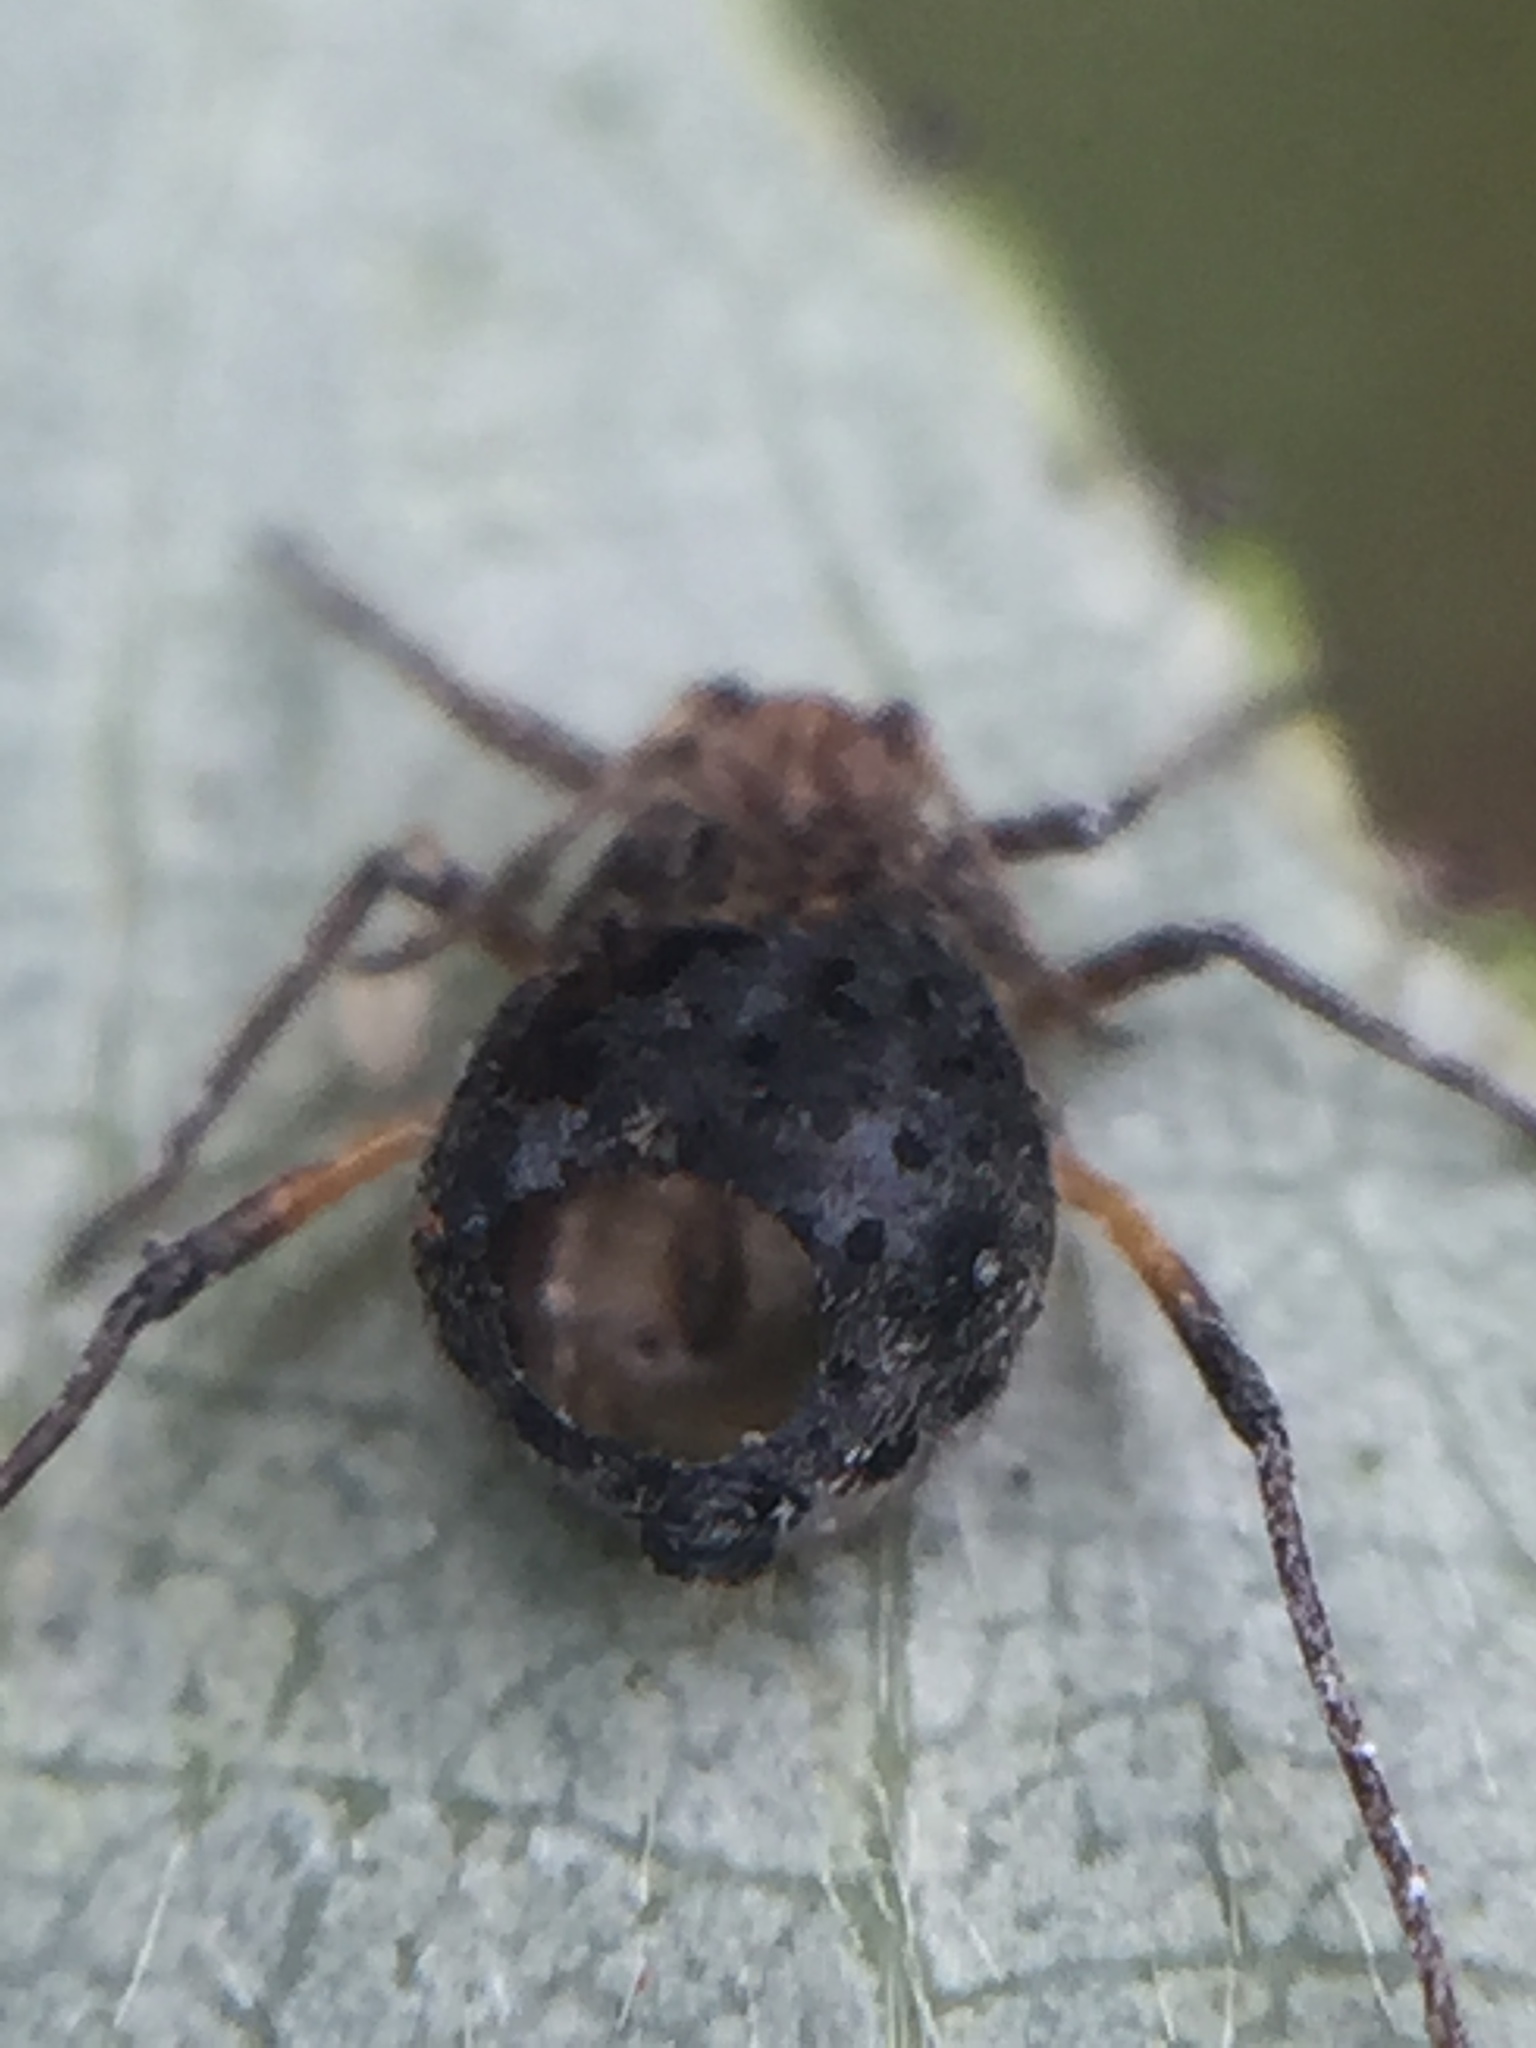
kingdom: Animalia
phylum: Arthropoda
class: Insecta
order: Hymenoptera
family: Braconidae
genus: Pauesia
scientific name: Pauesia nigrovaria
